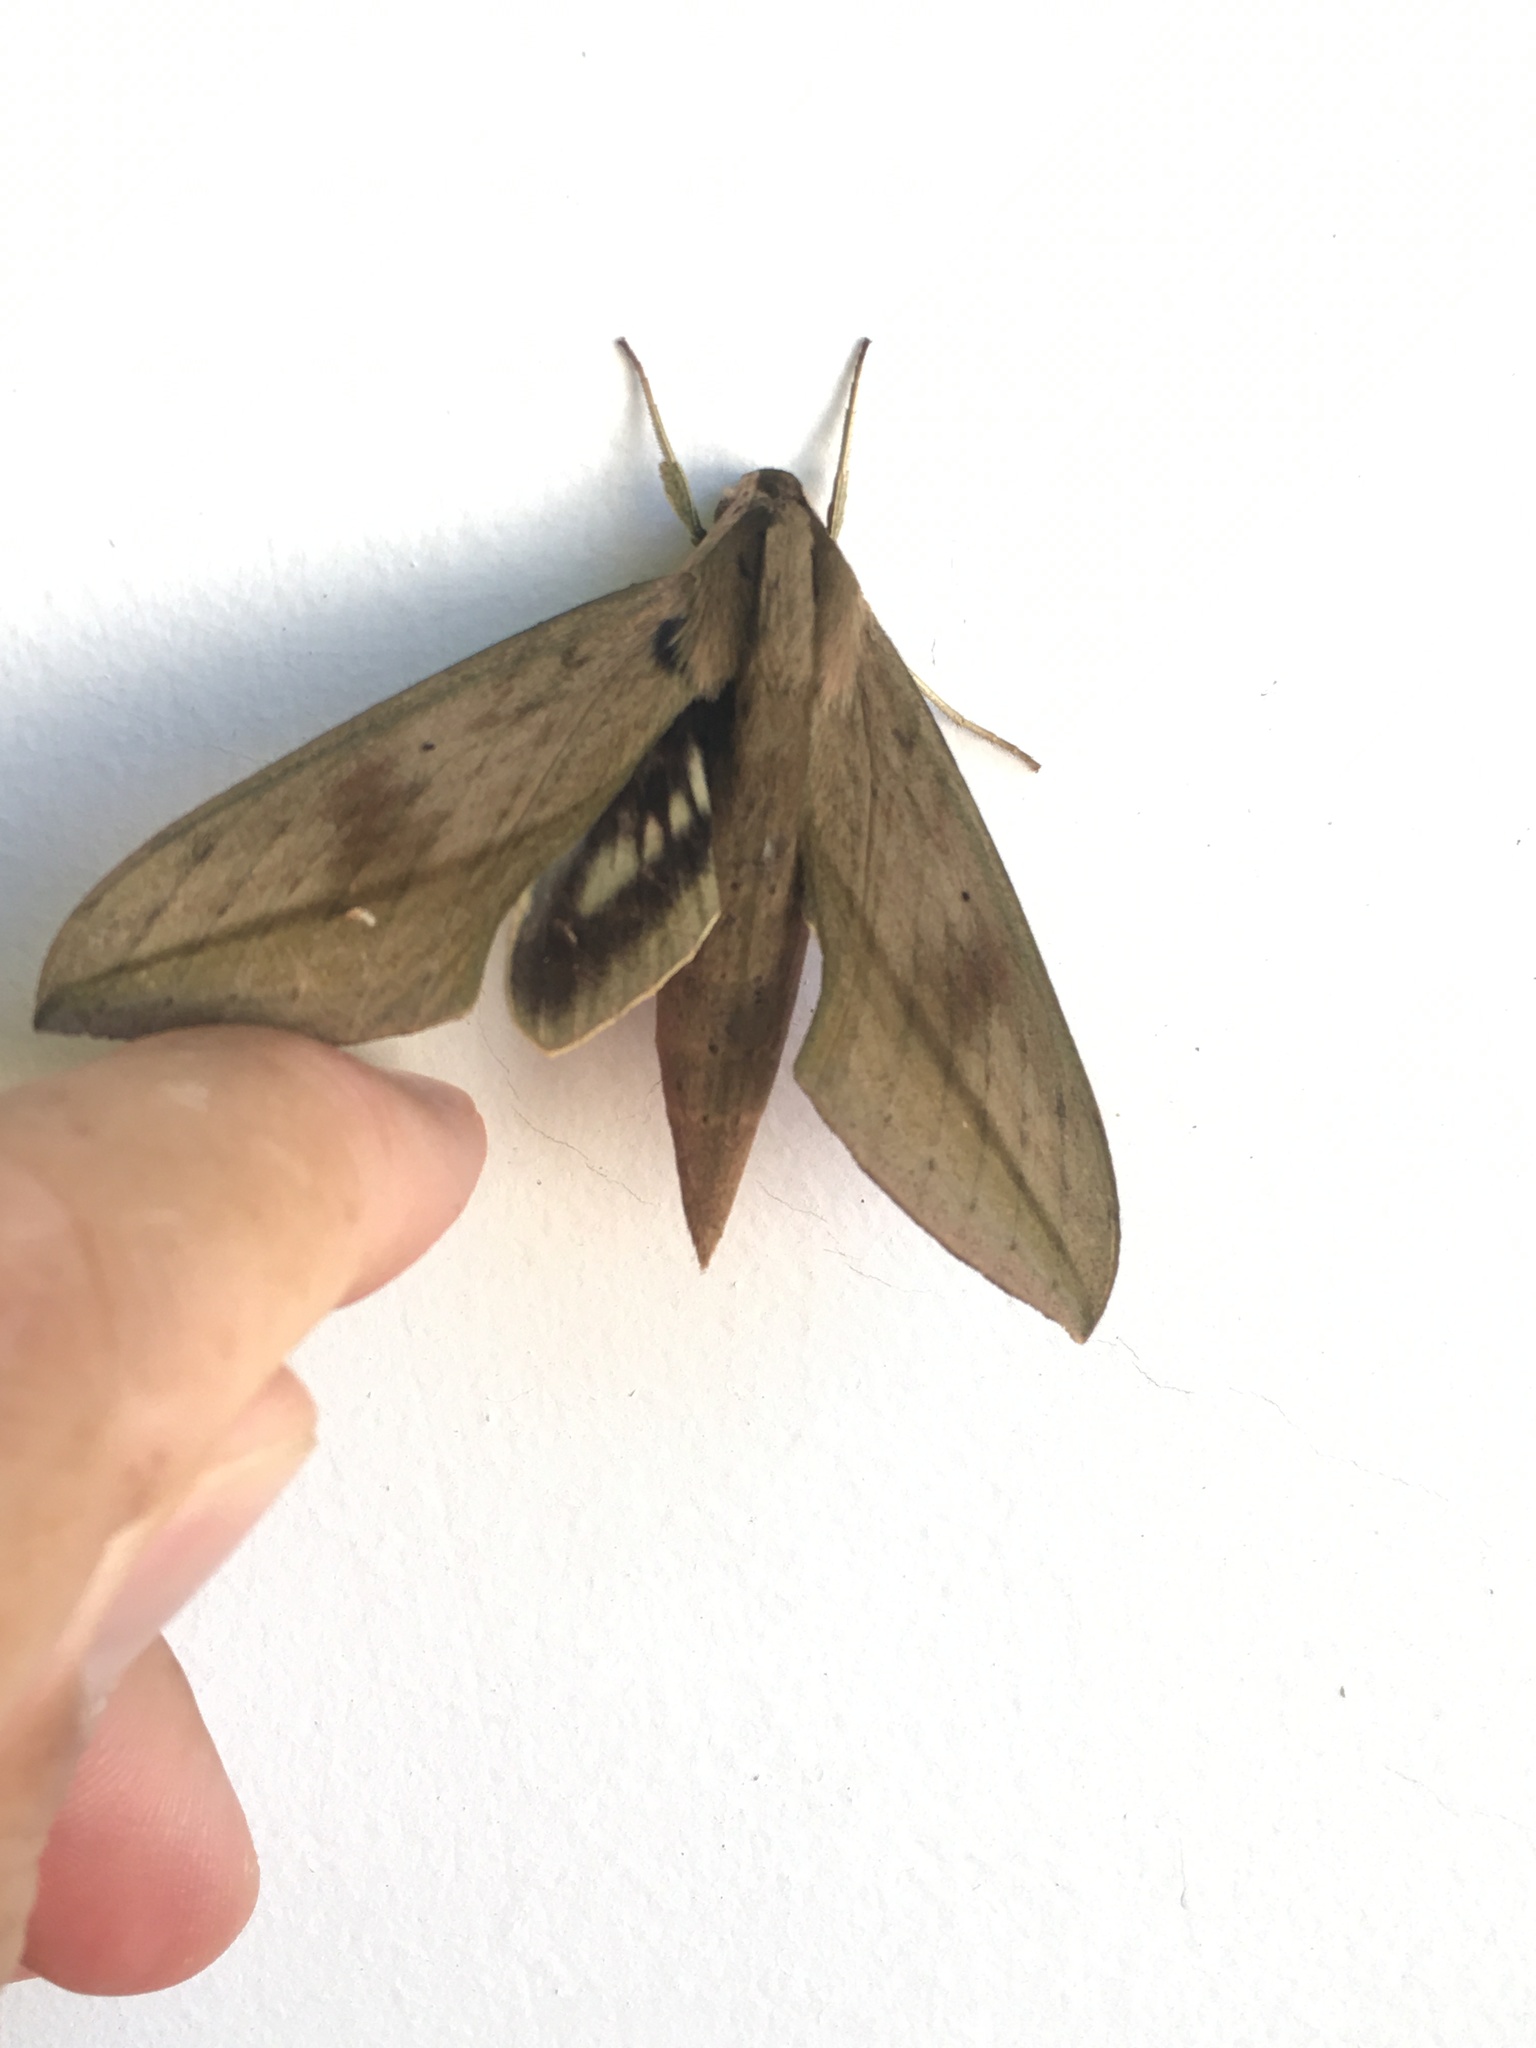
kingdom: Animalia
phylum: Arthropoda
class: Insecta
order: Lepidoptera
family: Sphingidae
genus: Xylophanes
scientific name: Xylophanes anubus
